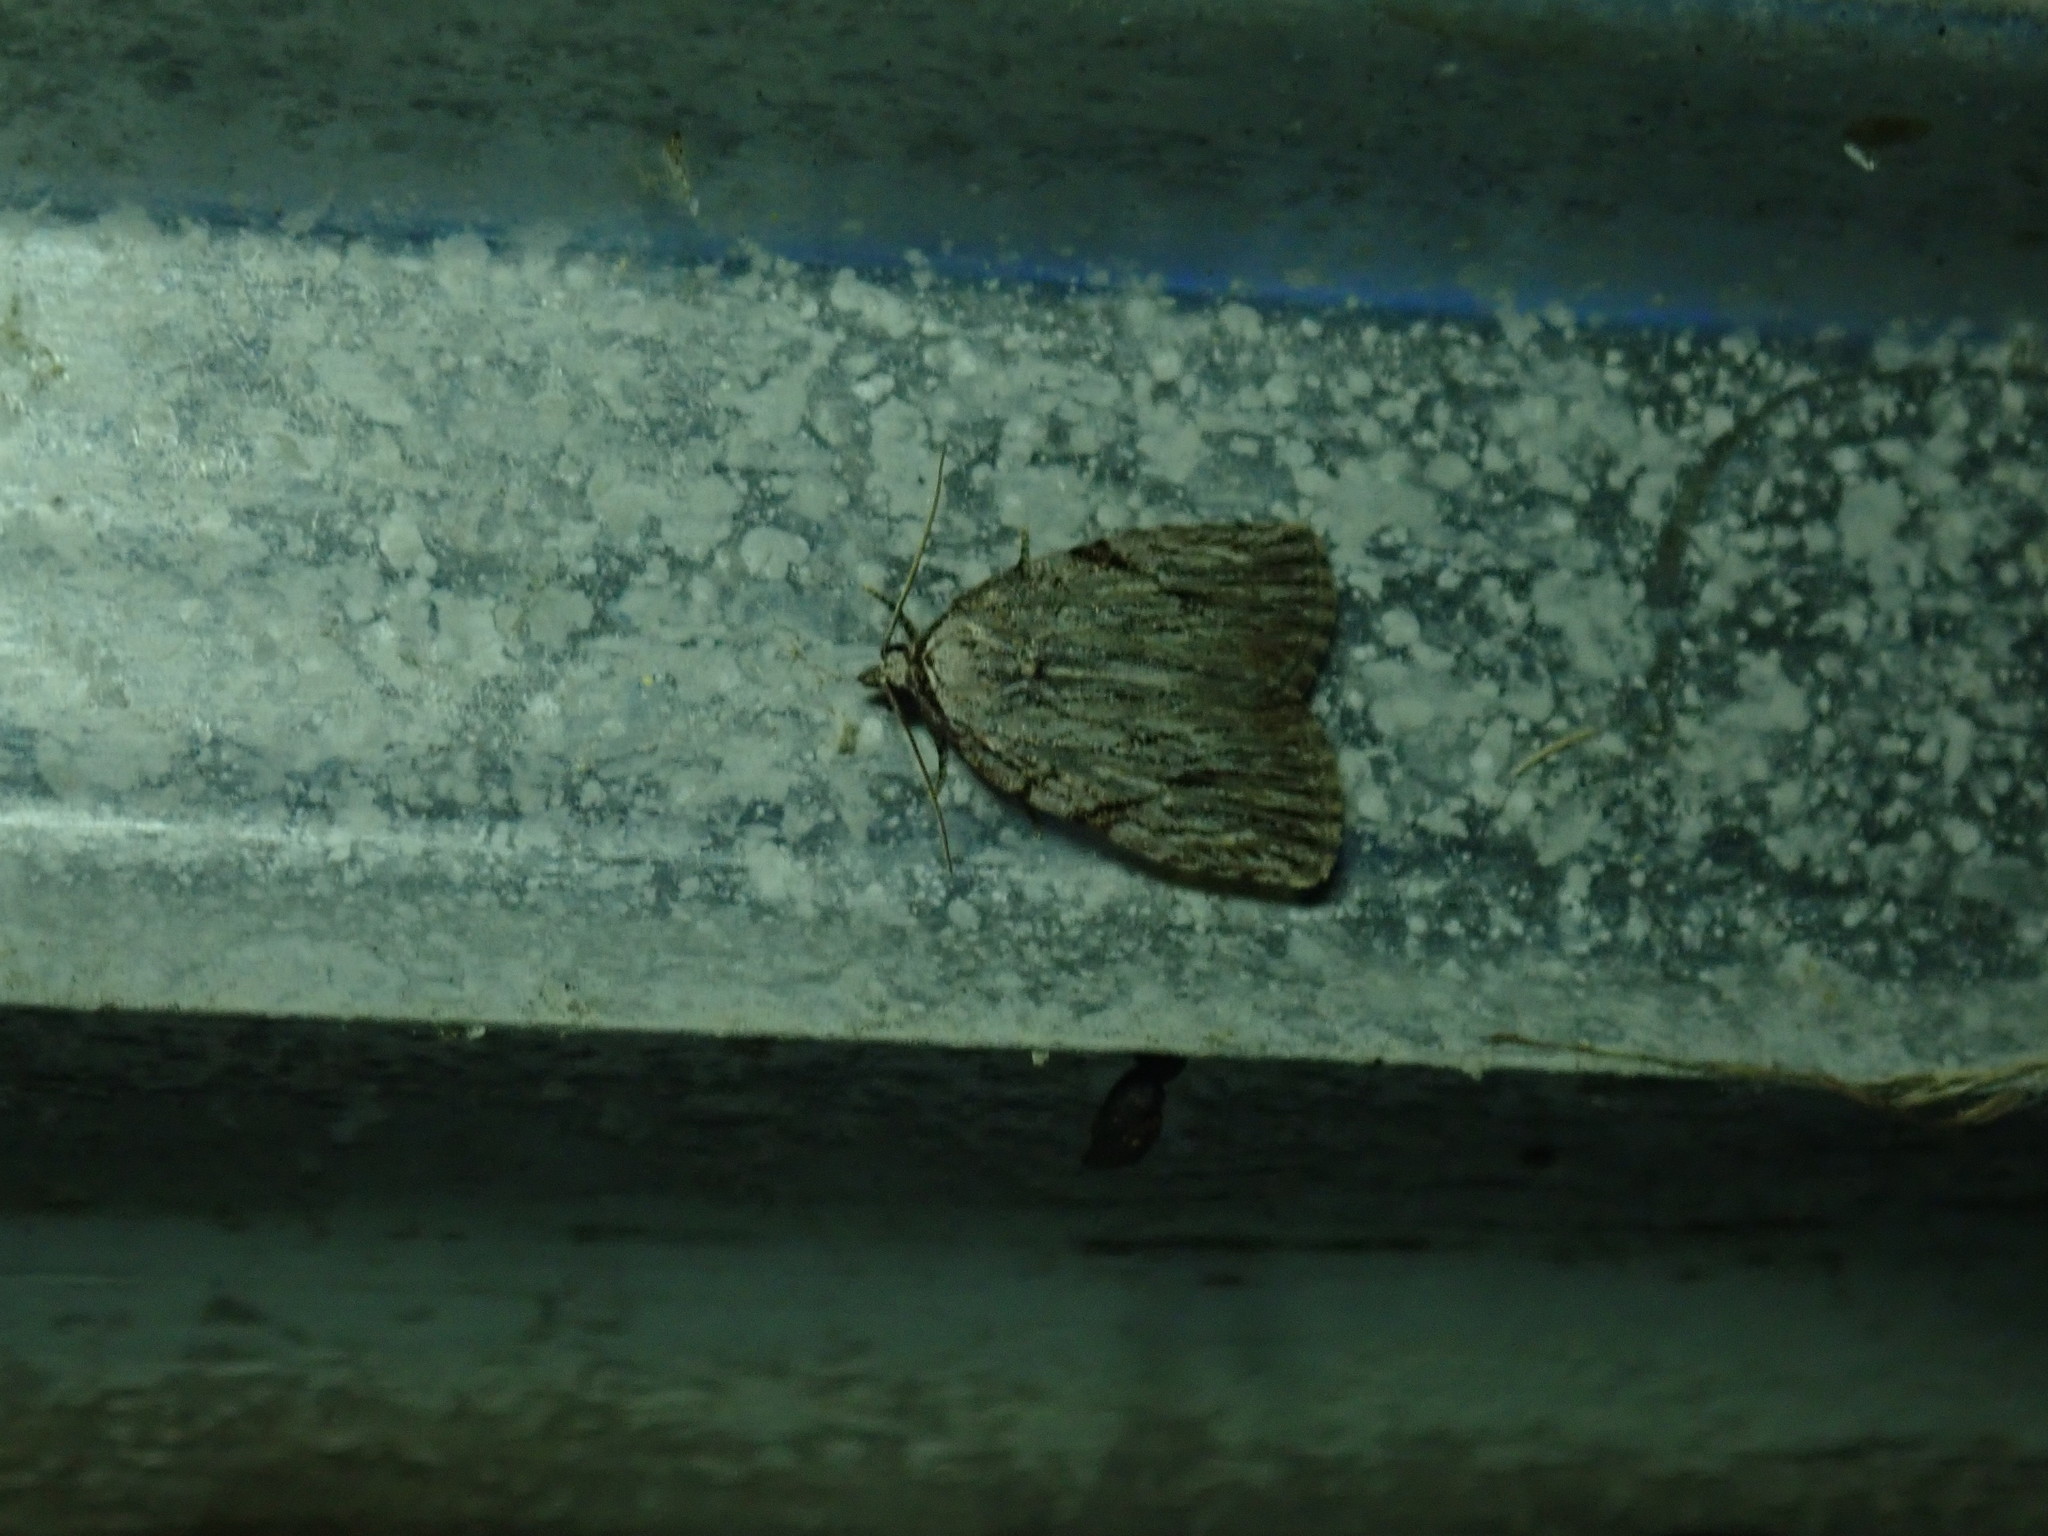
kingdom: Animalia
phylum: Arthropoda
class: Insecta
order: Lepidoptera
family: Noctuidae
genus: Balsa
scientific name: Balsa tristrigella
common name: Three-lined balsa moth
